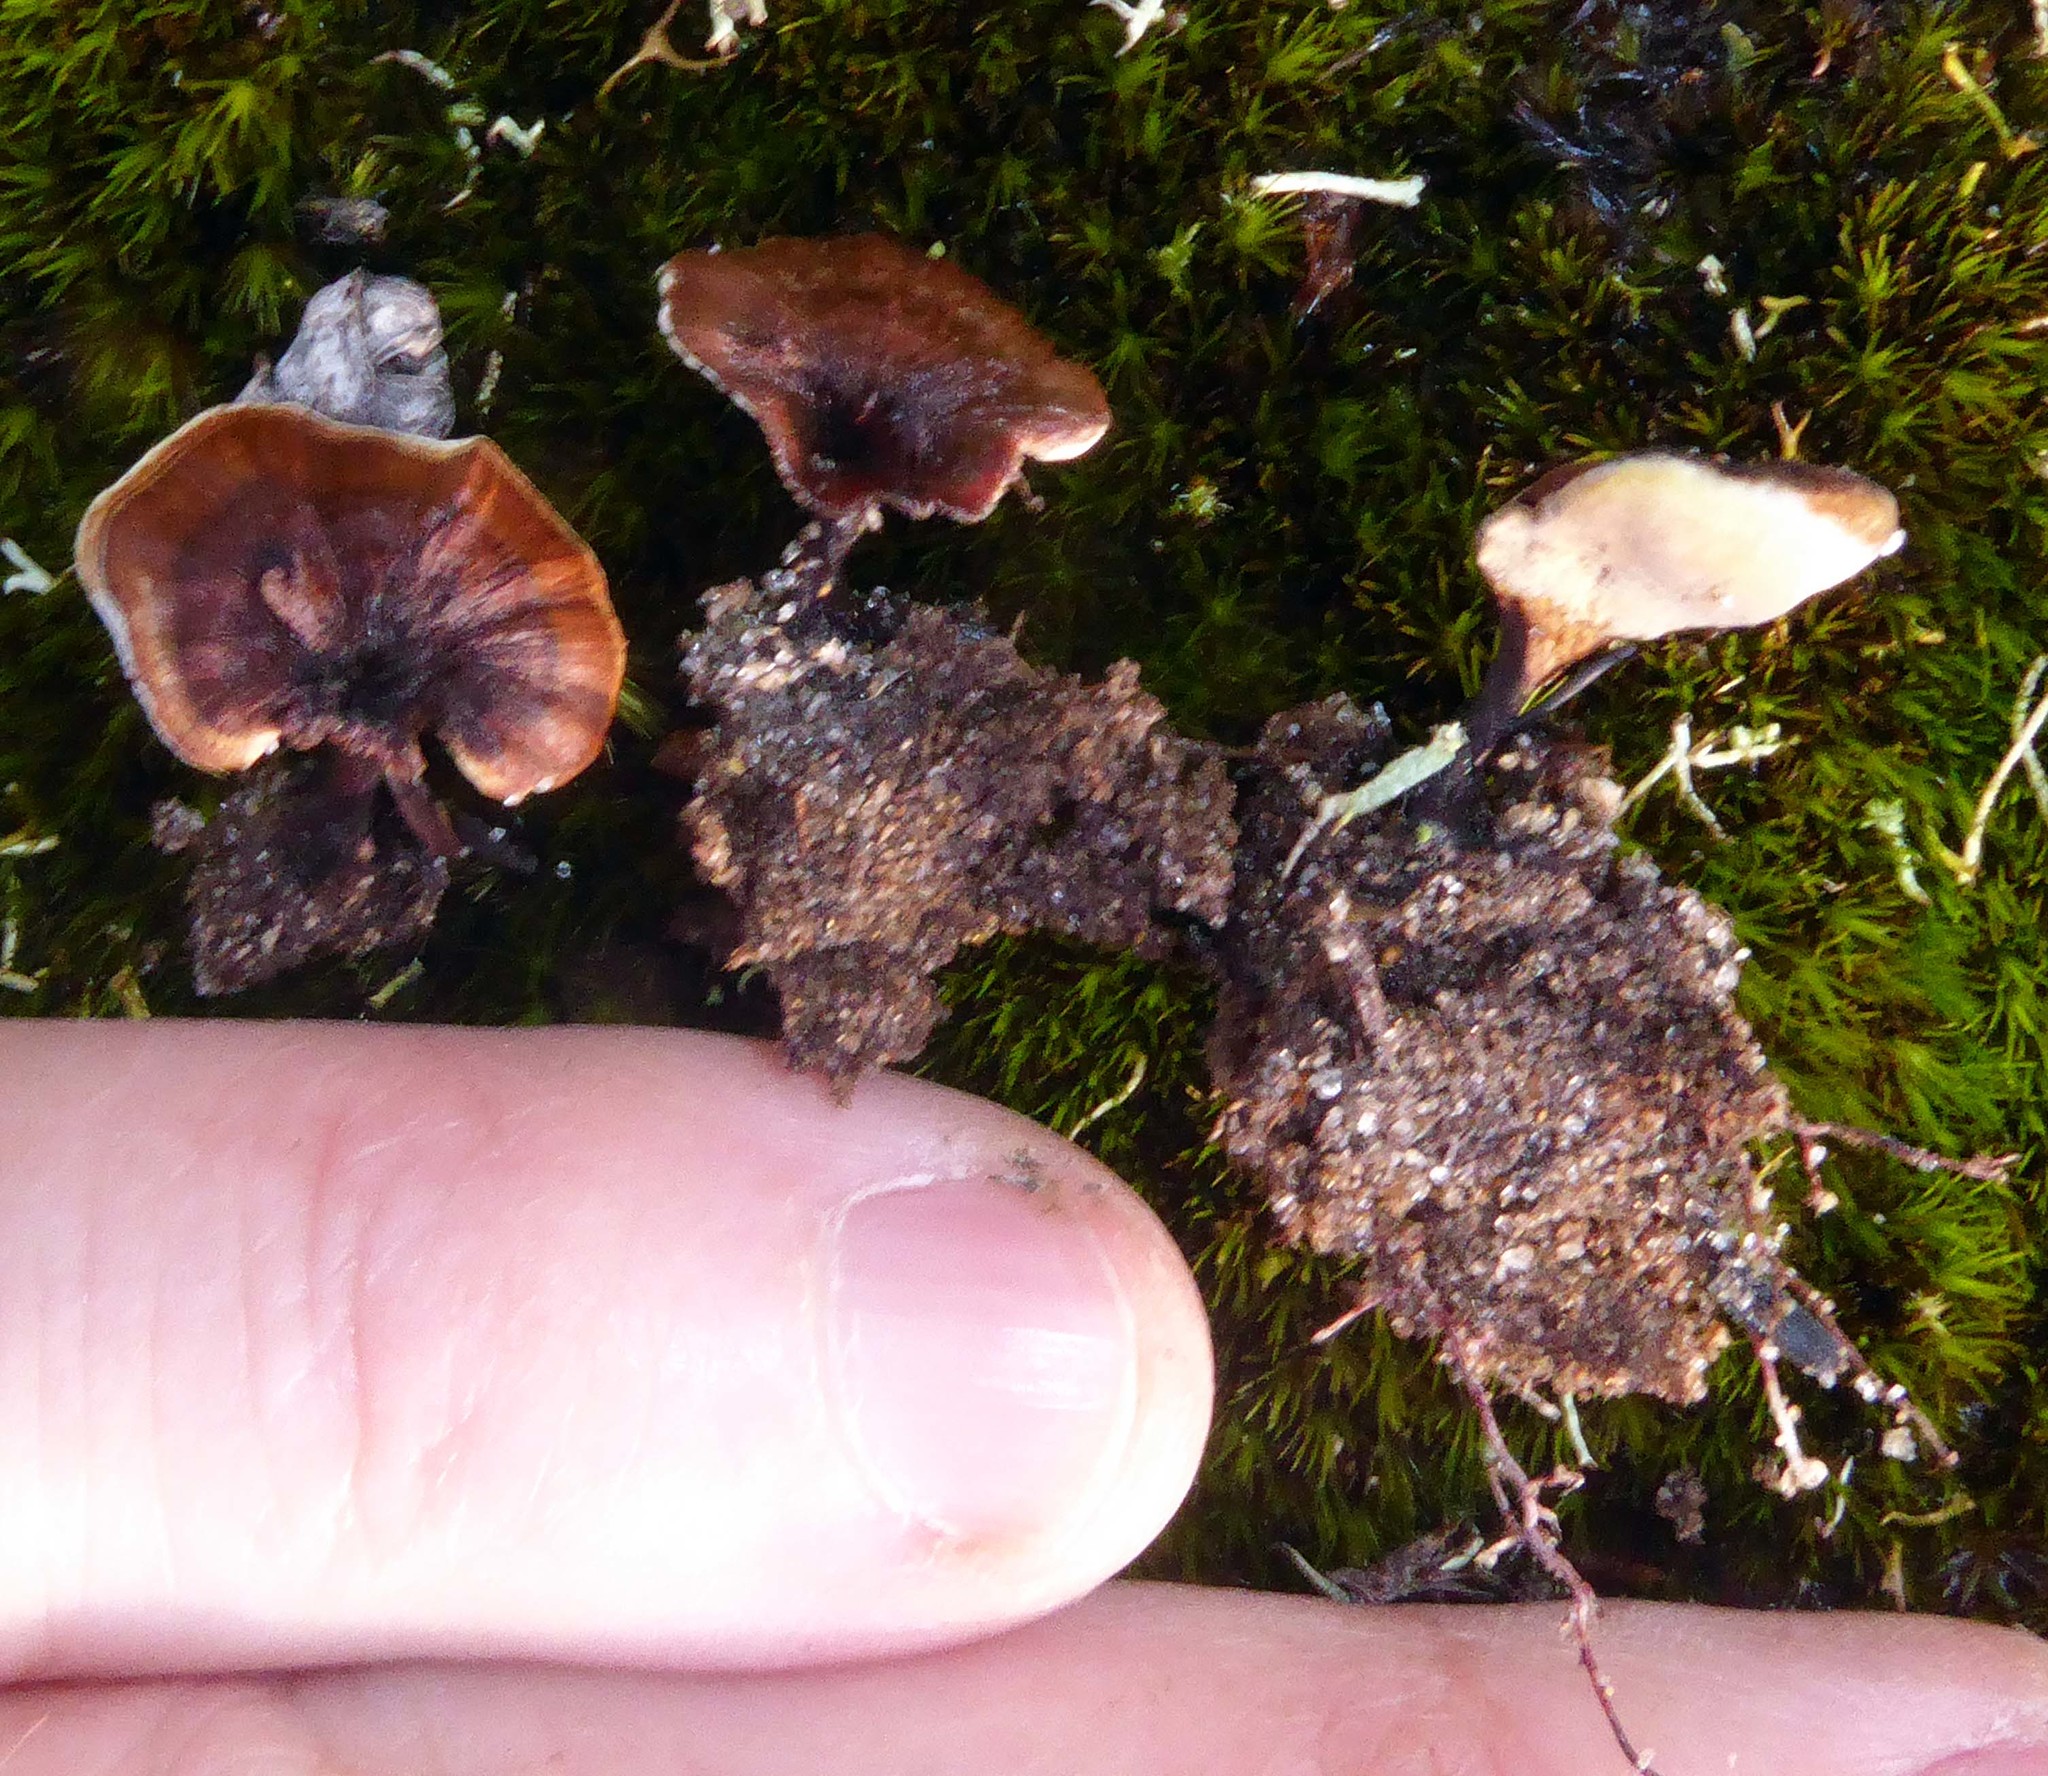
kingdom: Fungi
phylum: Basidiomycota
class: Agaricomycetes
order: Hymenochaetales
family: Hymenochaetaceae
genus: Coltricia
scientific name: Coltricia cinnamomea
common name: Shiny cinnamon polypore
